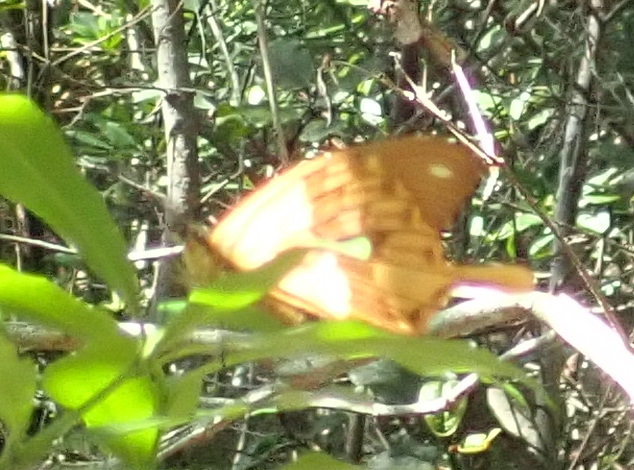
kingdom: Animalia
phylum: Arthropoda
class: Insecta
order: Lepidoptera
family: Papilionidae
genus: Papilio
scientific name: Papilio dardanus
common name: Flying handkerchief
